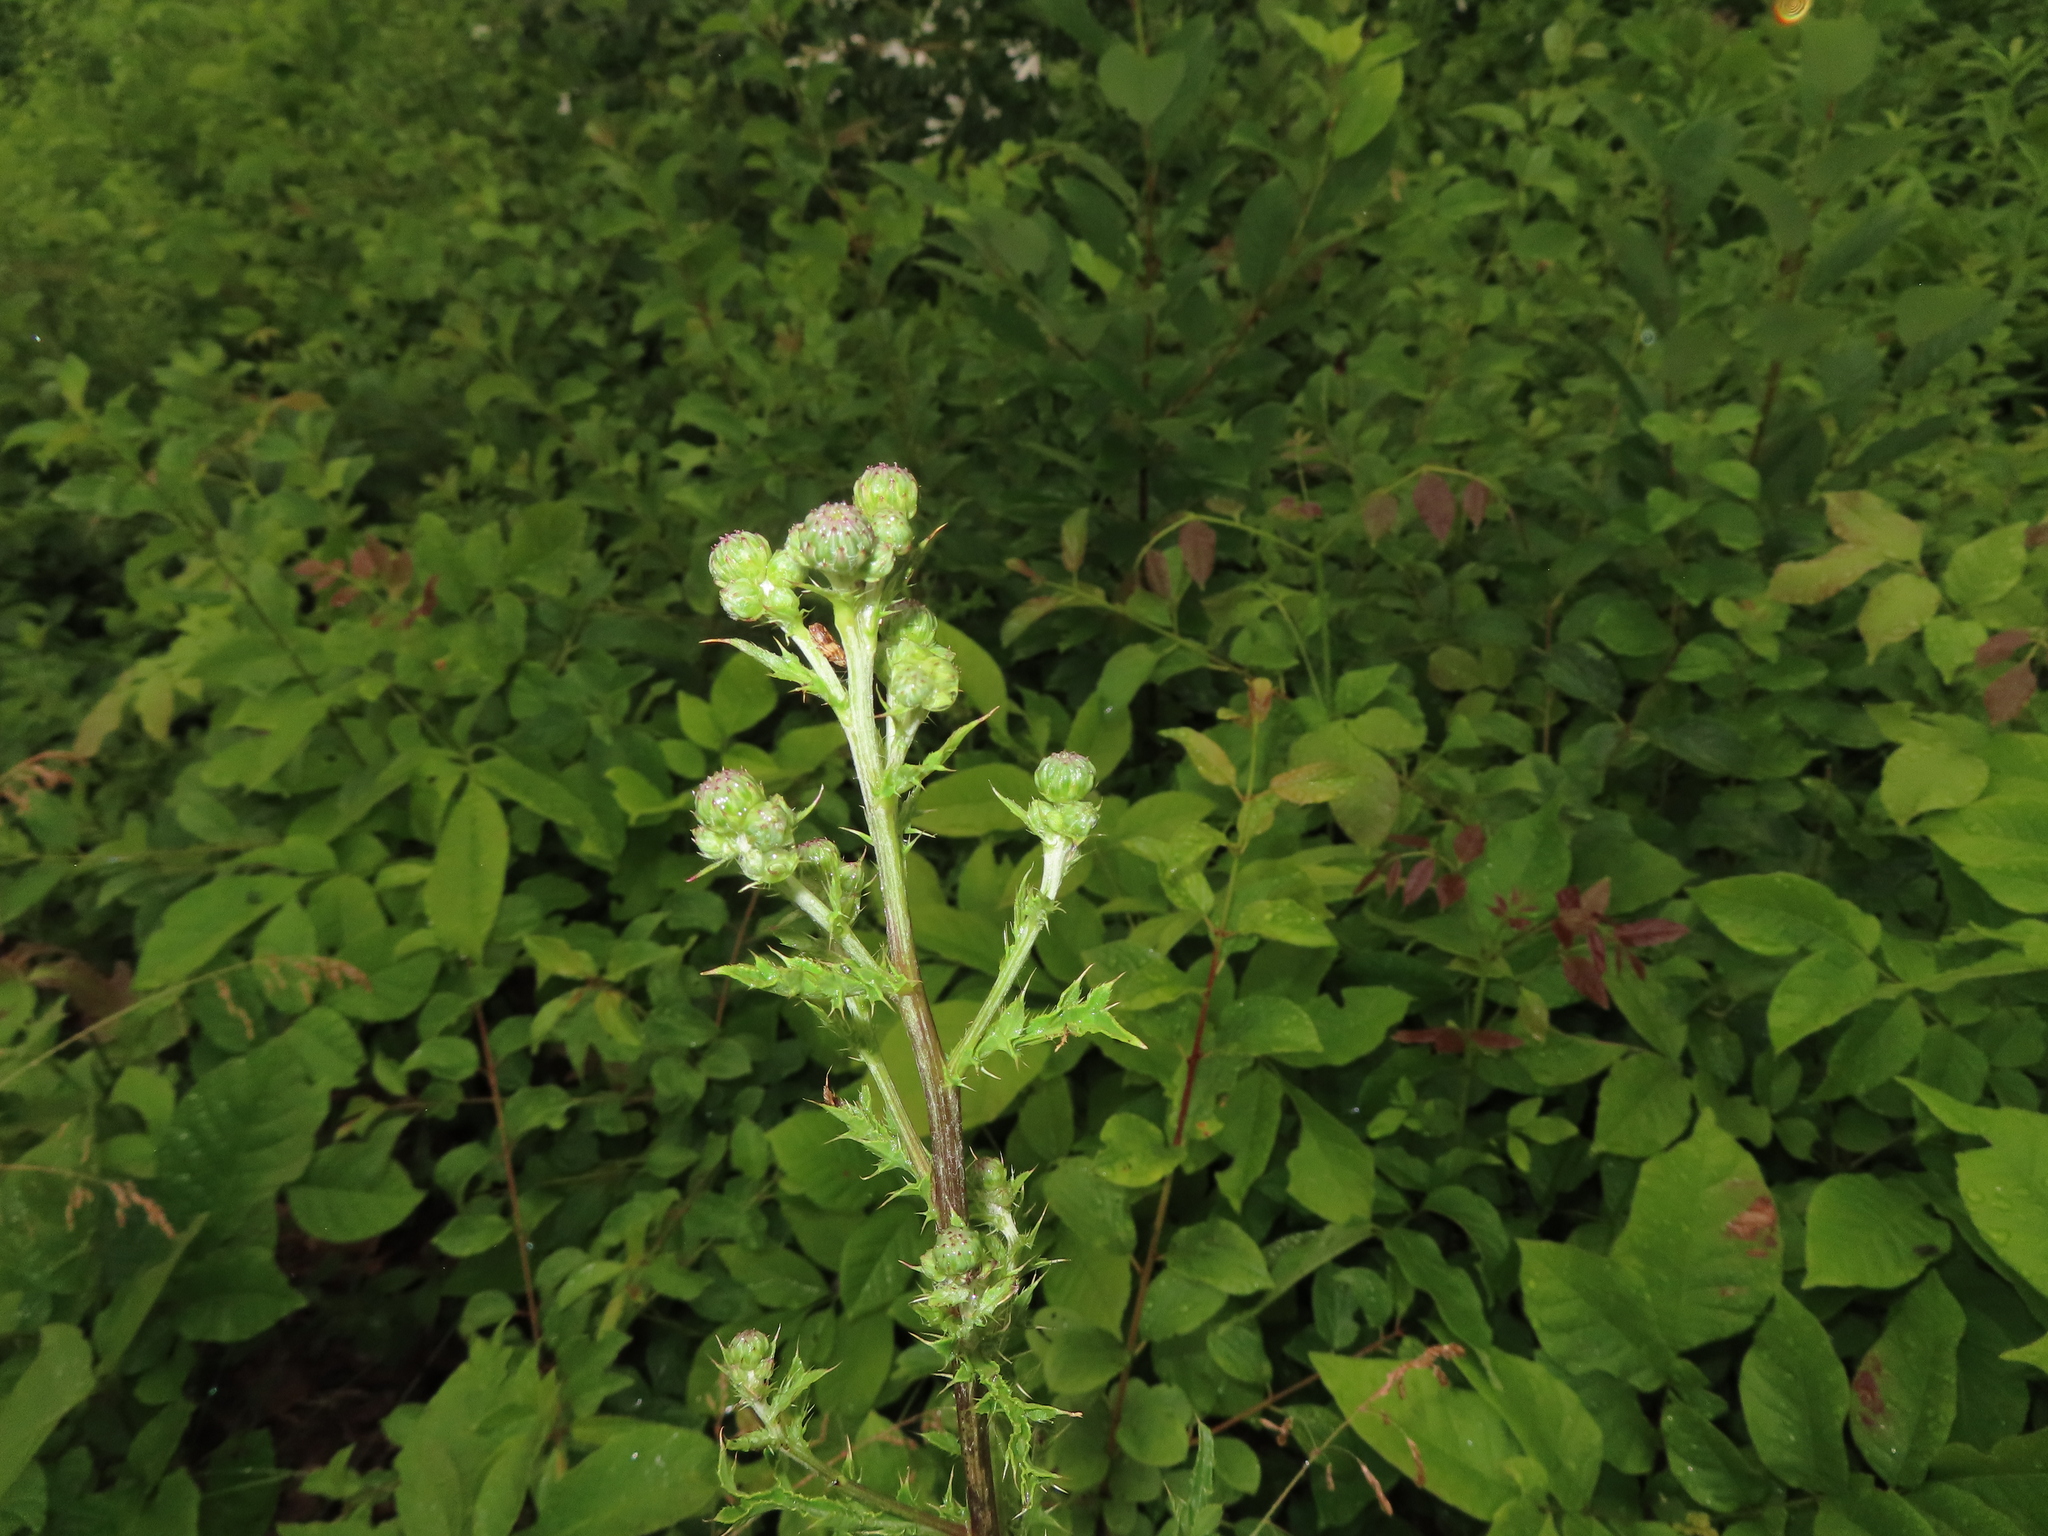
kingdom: Plantae
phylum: Tracheophyta
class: Magnoliopsida
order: Asterales
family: Asteraceae
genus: Cirsium
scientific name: Cirsium arvense
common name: Creeping thistle
